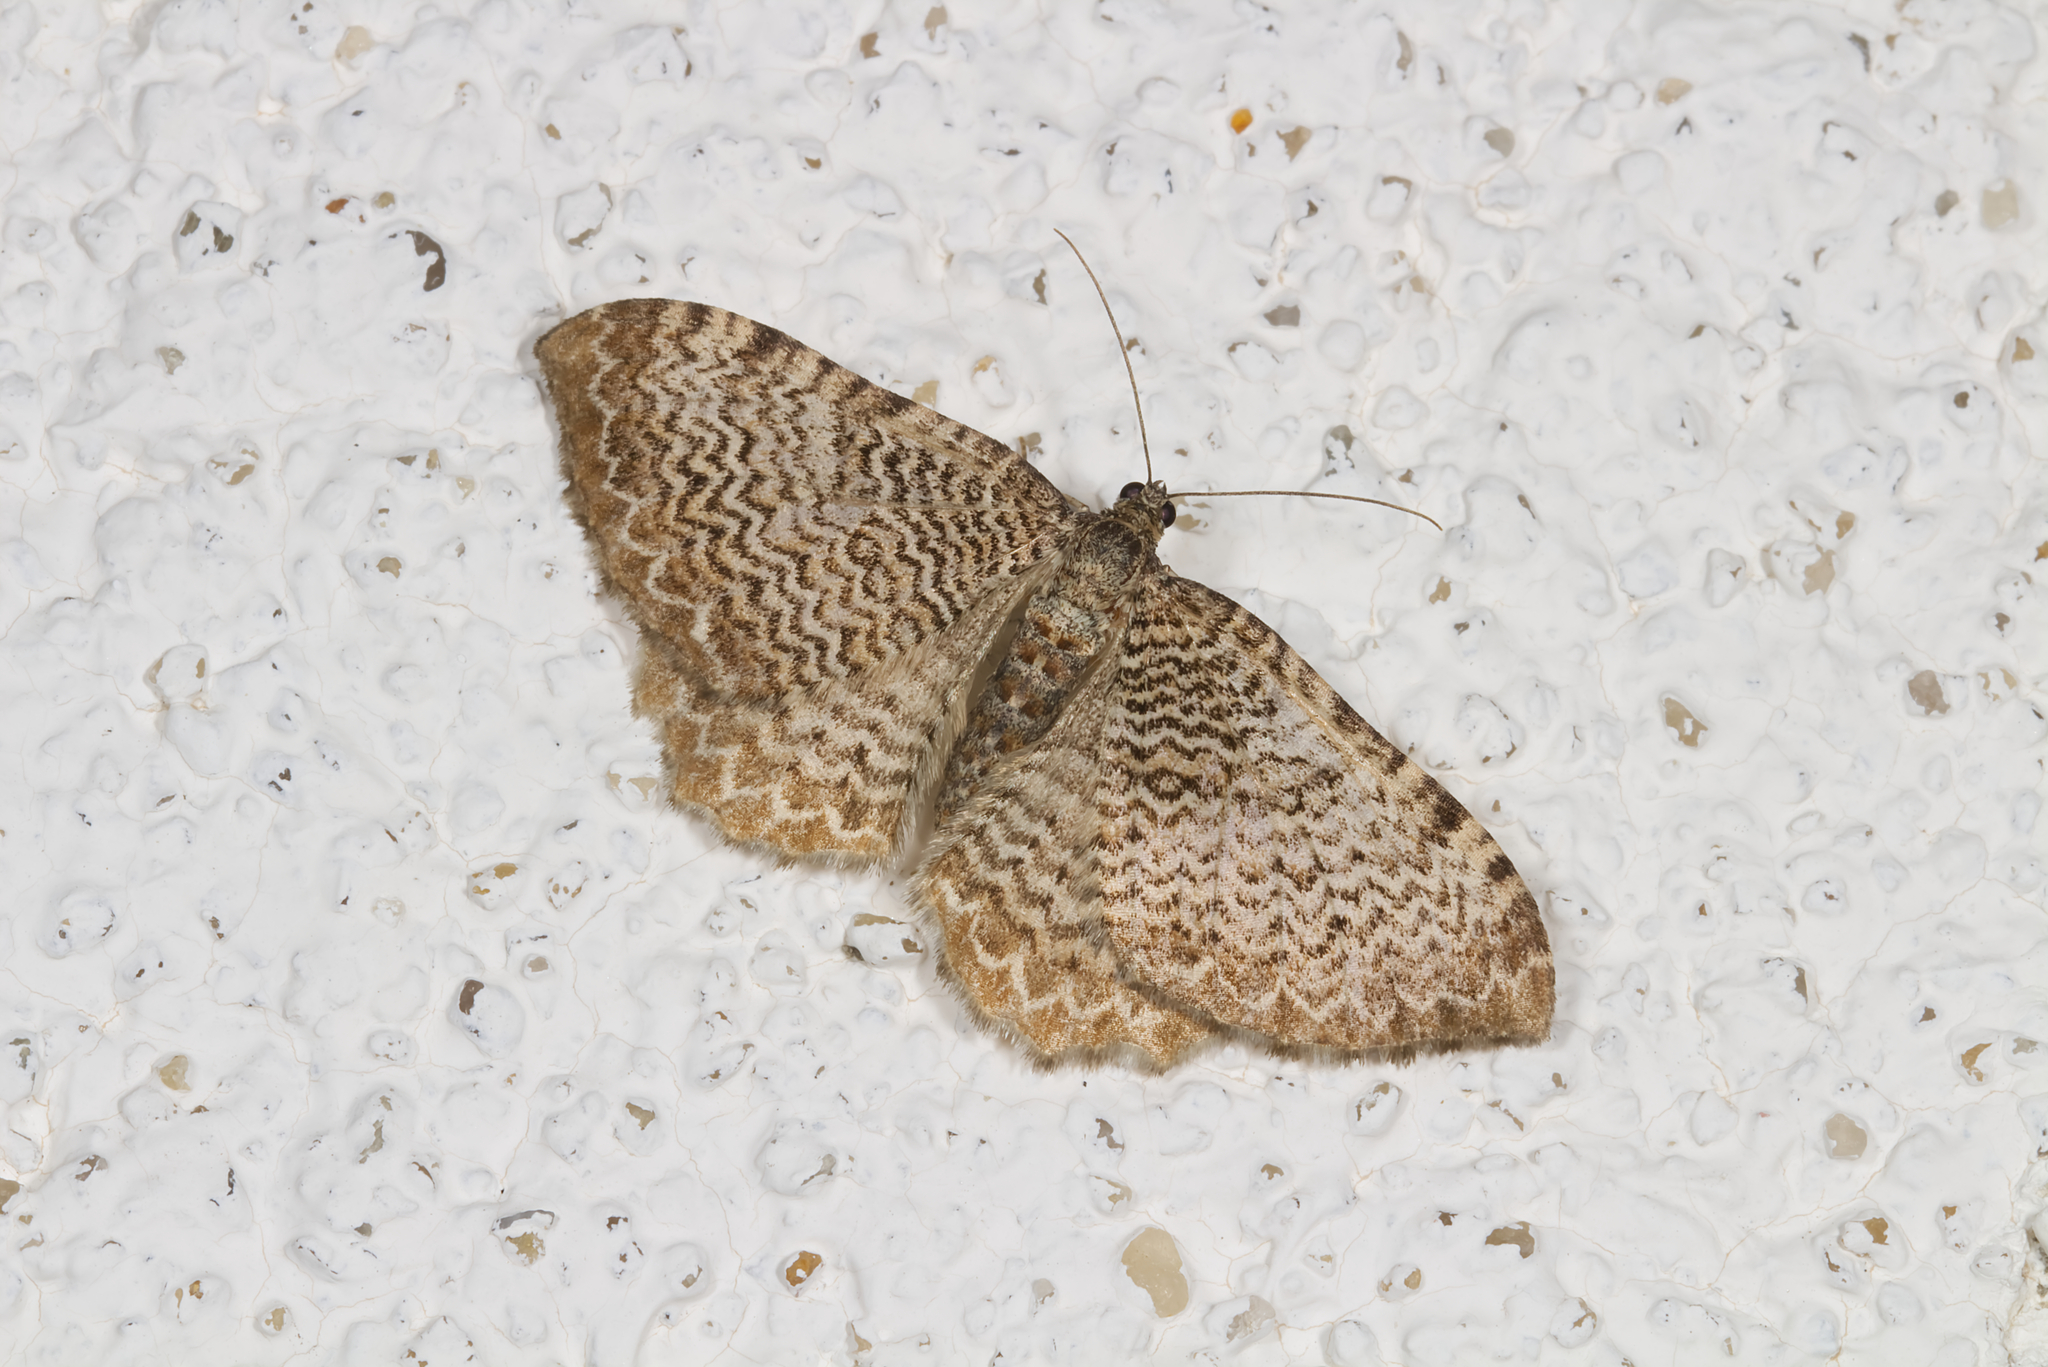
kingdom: Animalia
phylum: Arthropoda
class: Insecta
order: Lepidoptera
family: Geometridae
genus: Rheumaptera
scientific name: Rheumaptera undulata
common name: Scallop shell
